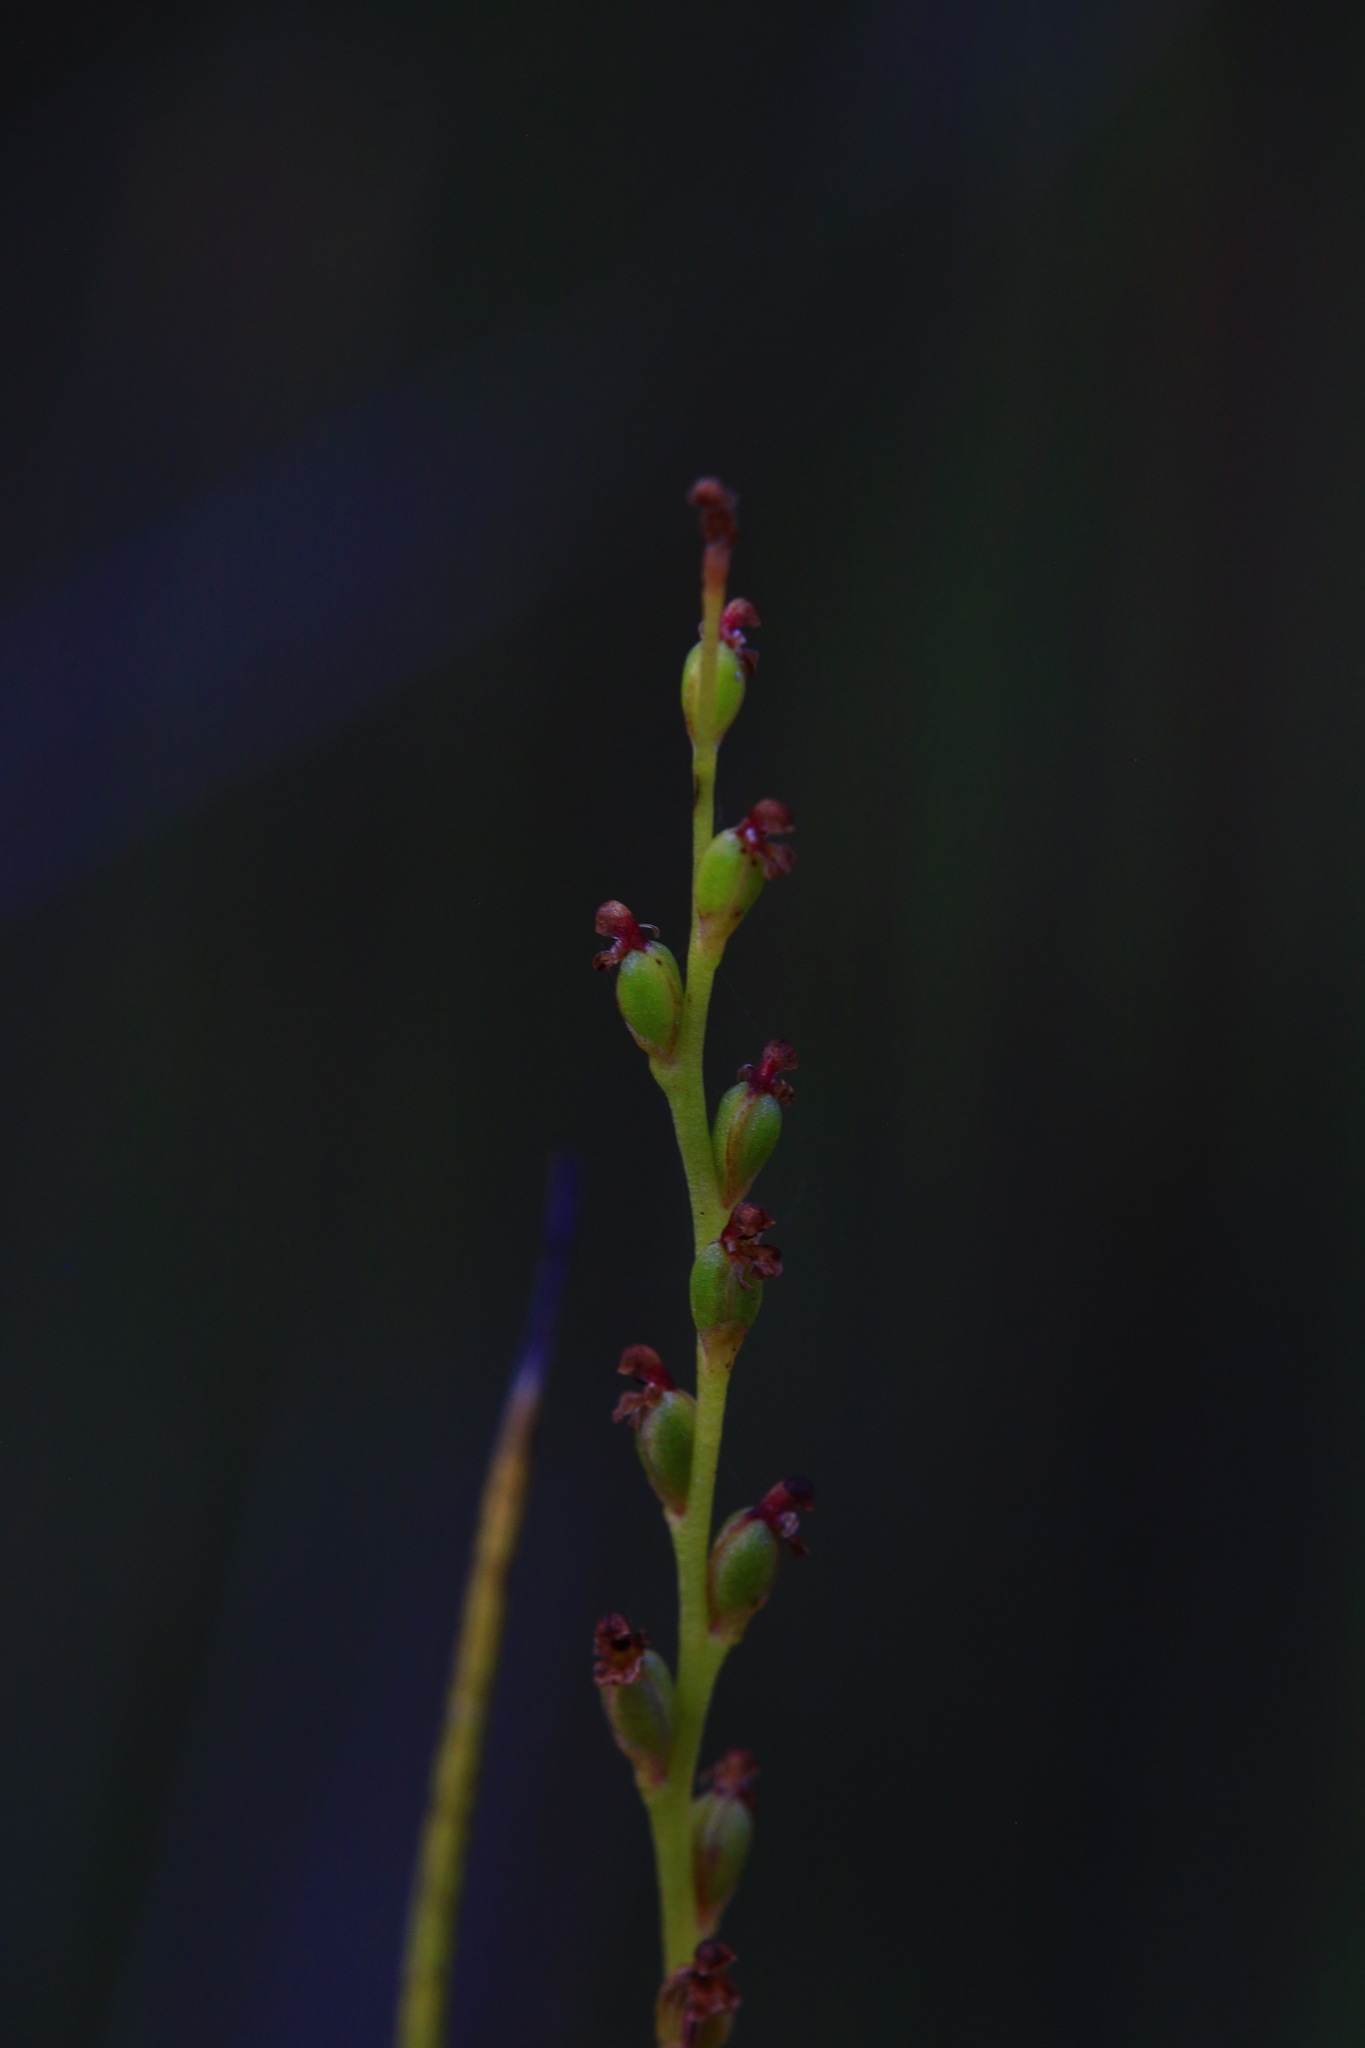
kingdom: Plantae
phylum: Tracheophyta
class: Liliopsida
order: Asparagales
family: Orchidaceae
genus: Microtis
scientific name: Microtis orbicularis
